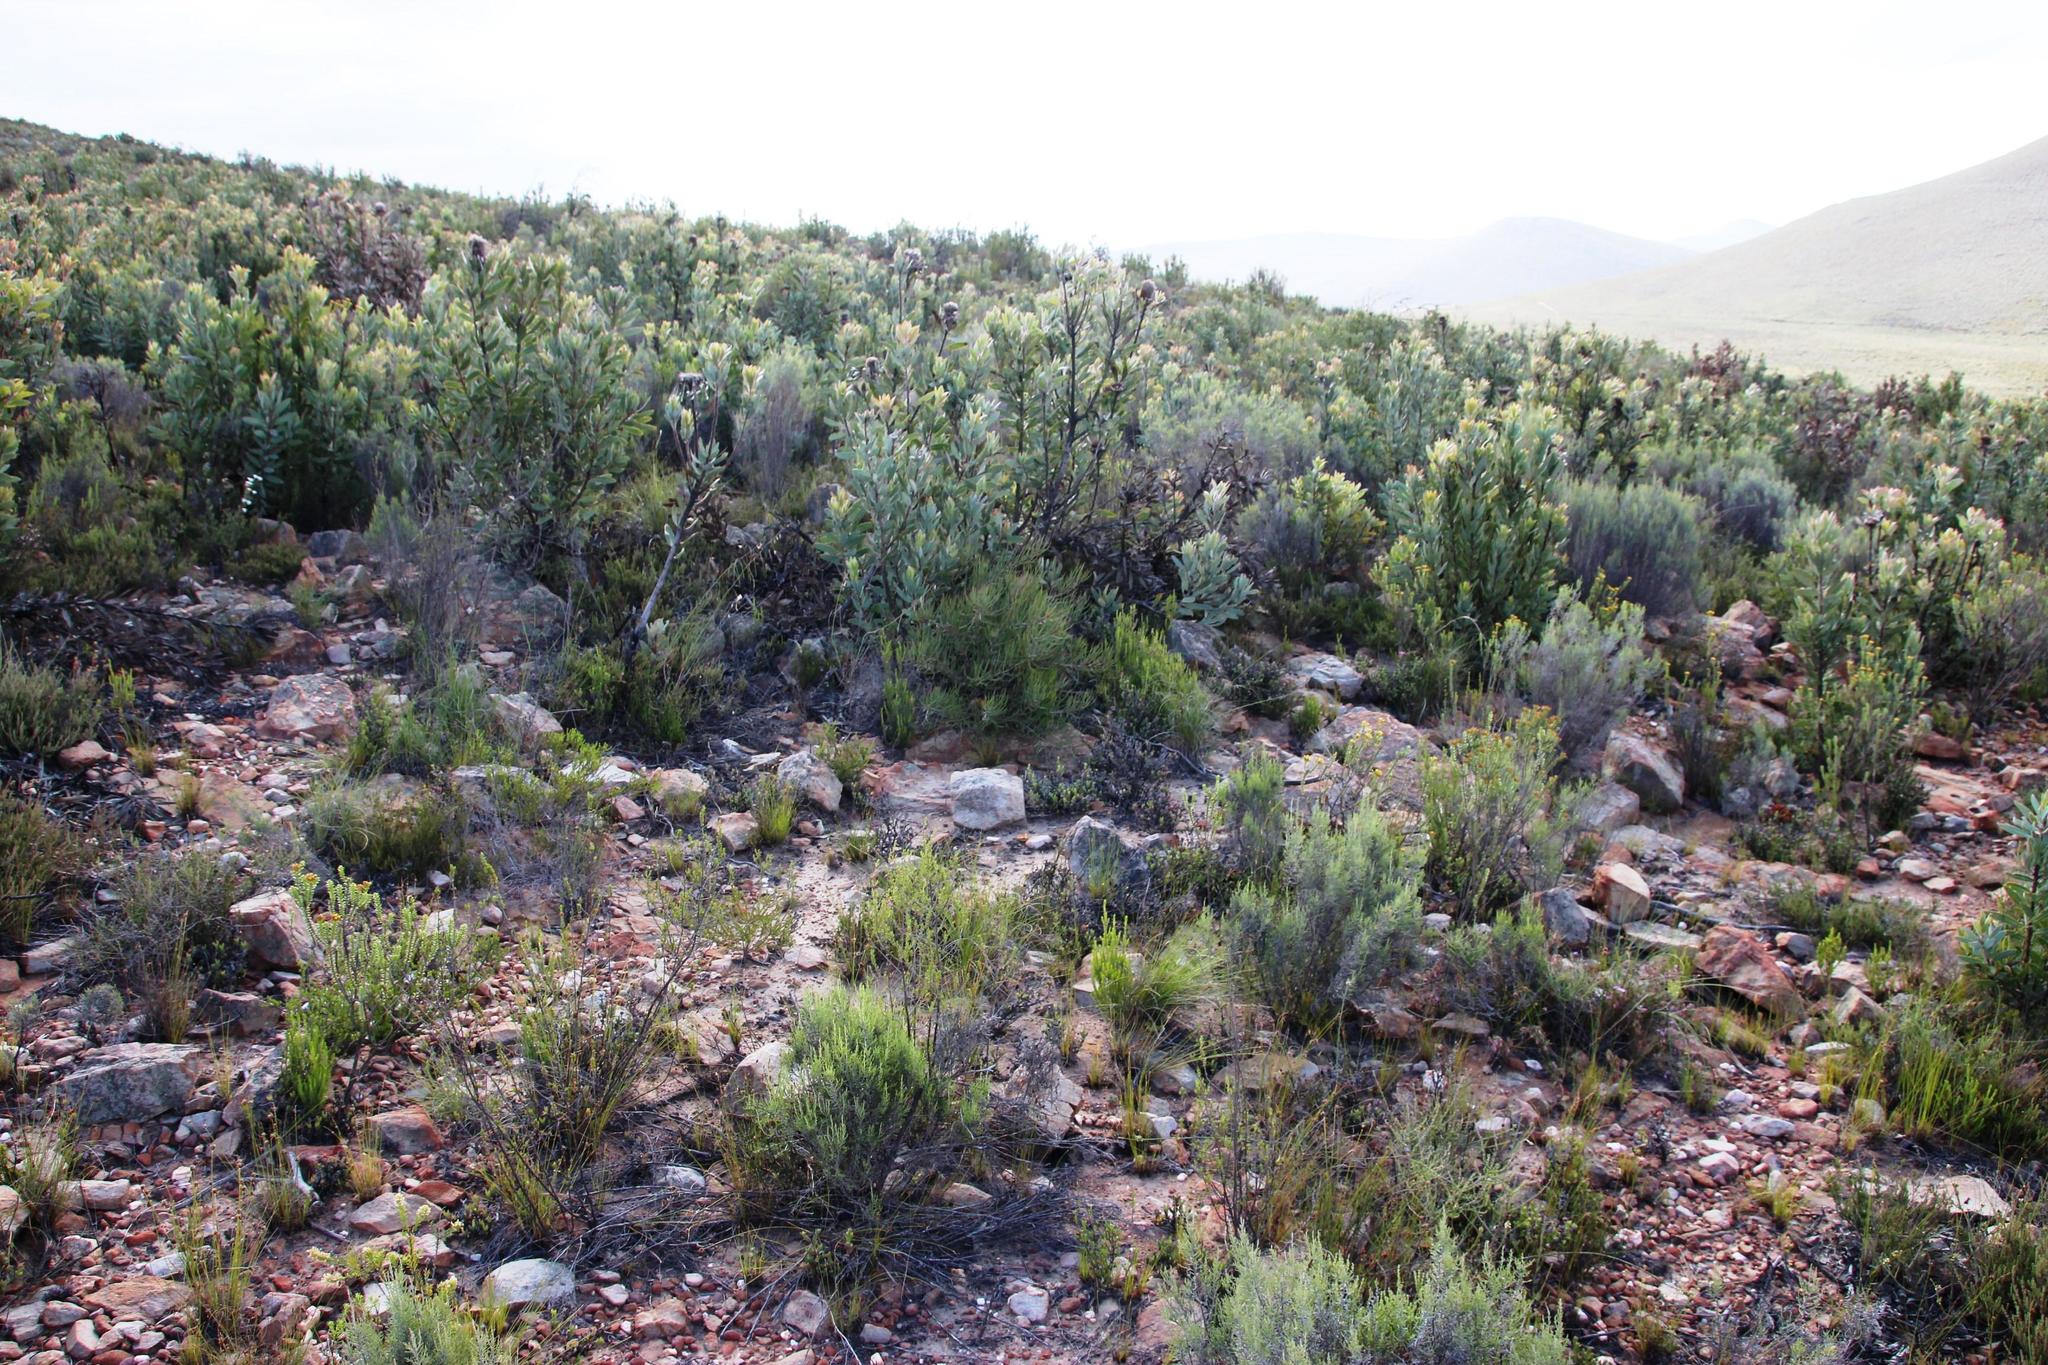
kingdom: Plantae
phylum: Tracheophyta
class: Magnoliopsida
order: Proteales
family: Proteaceae
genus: Protea
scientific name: Protea laurifolia
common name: Grey-leaf sugarbsh
